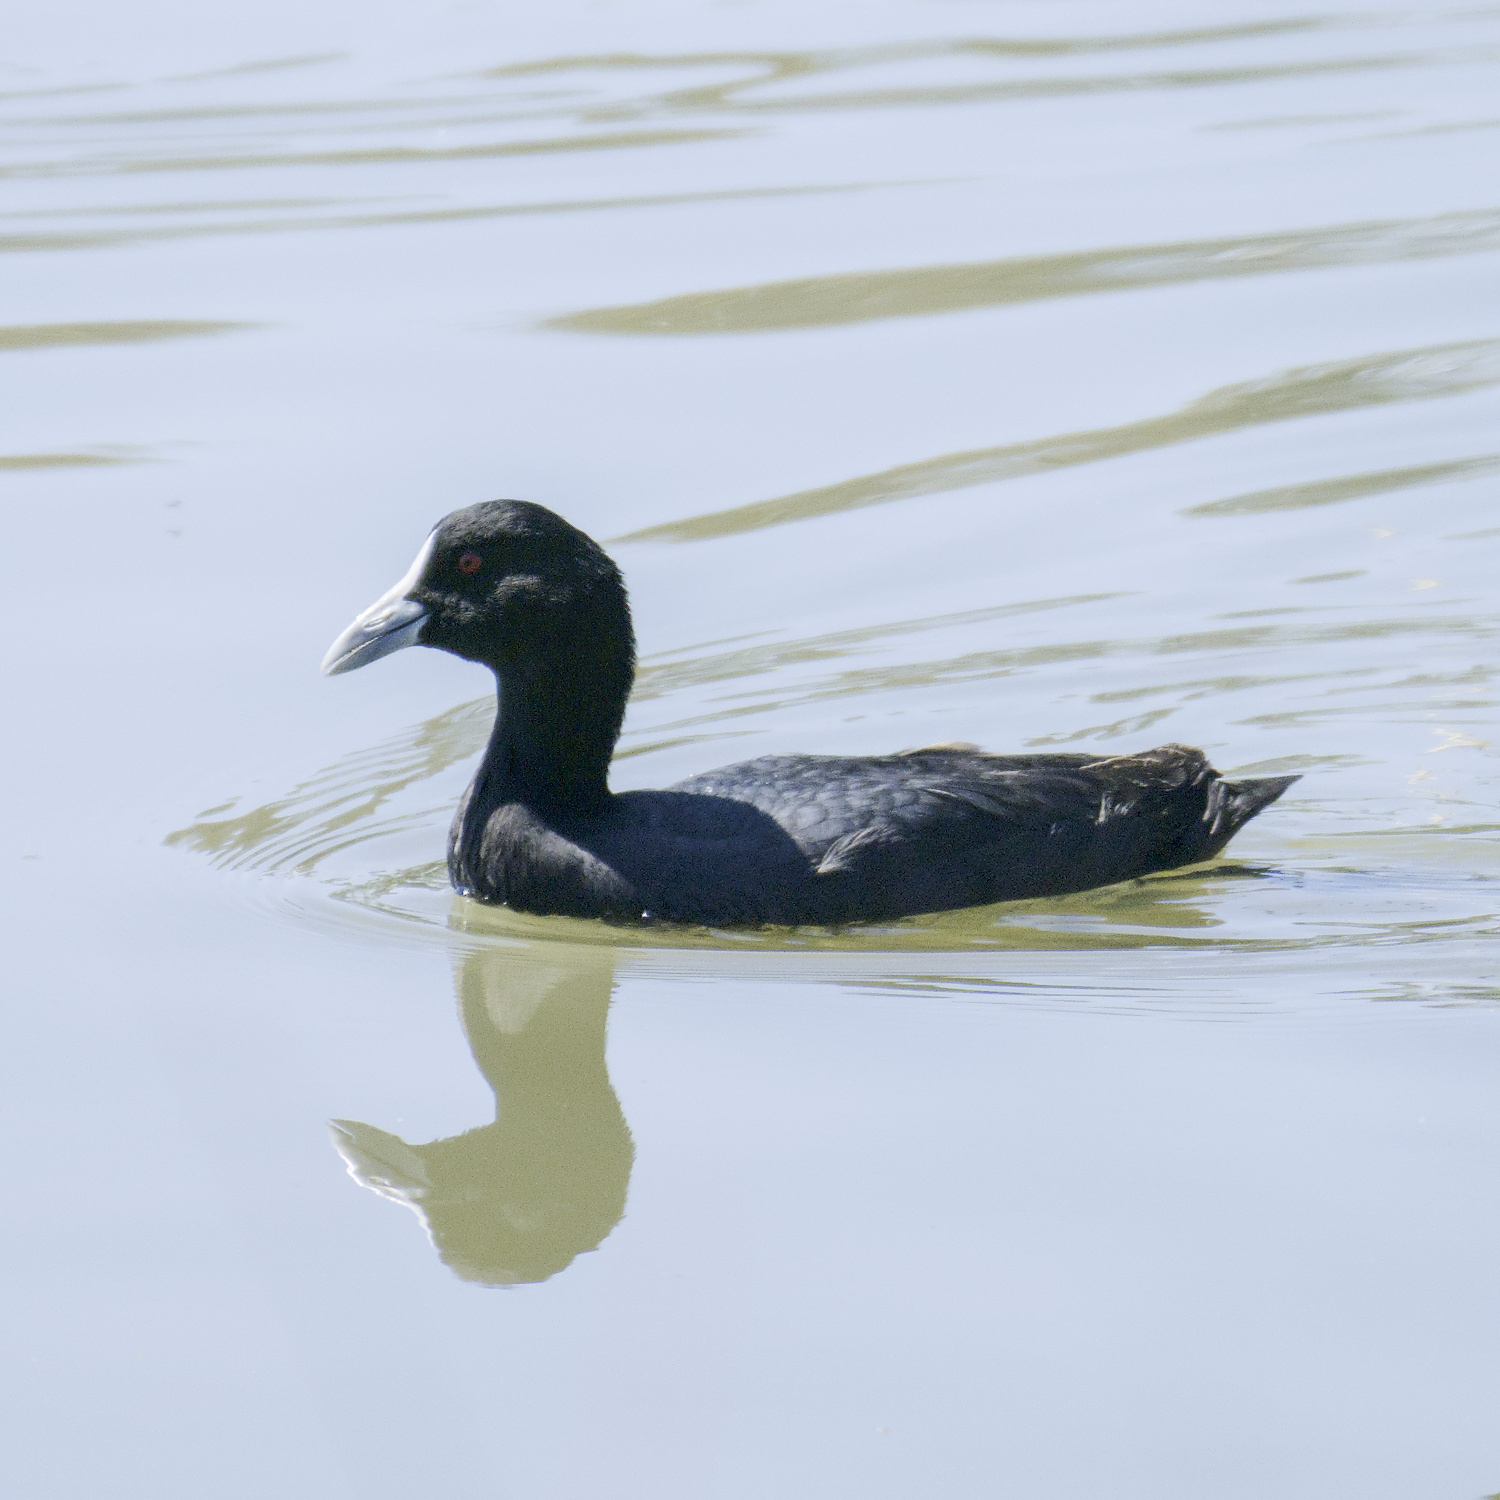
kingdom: Animalia
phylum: Chordata
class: Aves
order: Gruiformes
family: Rallidae
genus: Fulica
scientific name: Fulica atra
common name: Eurasian coot
